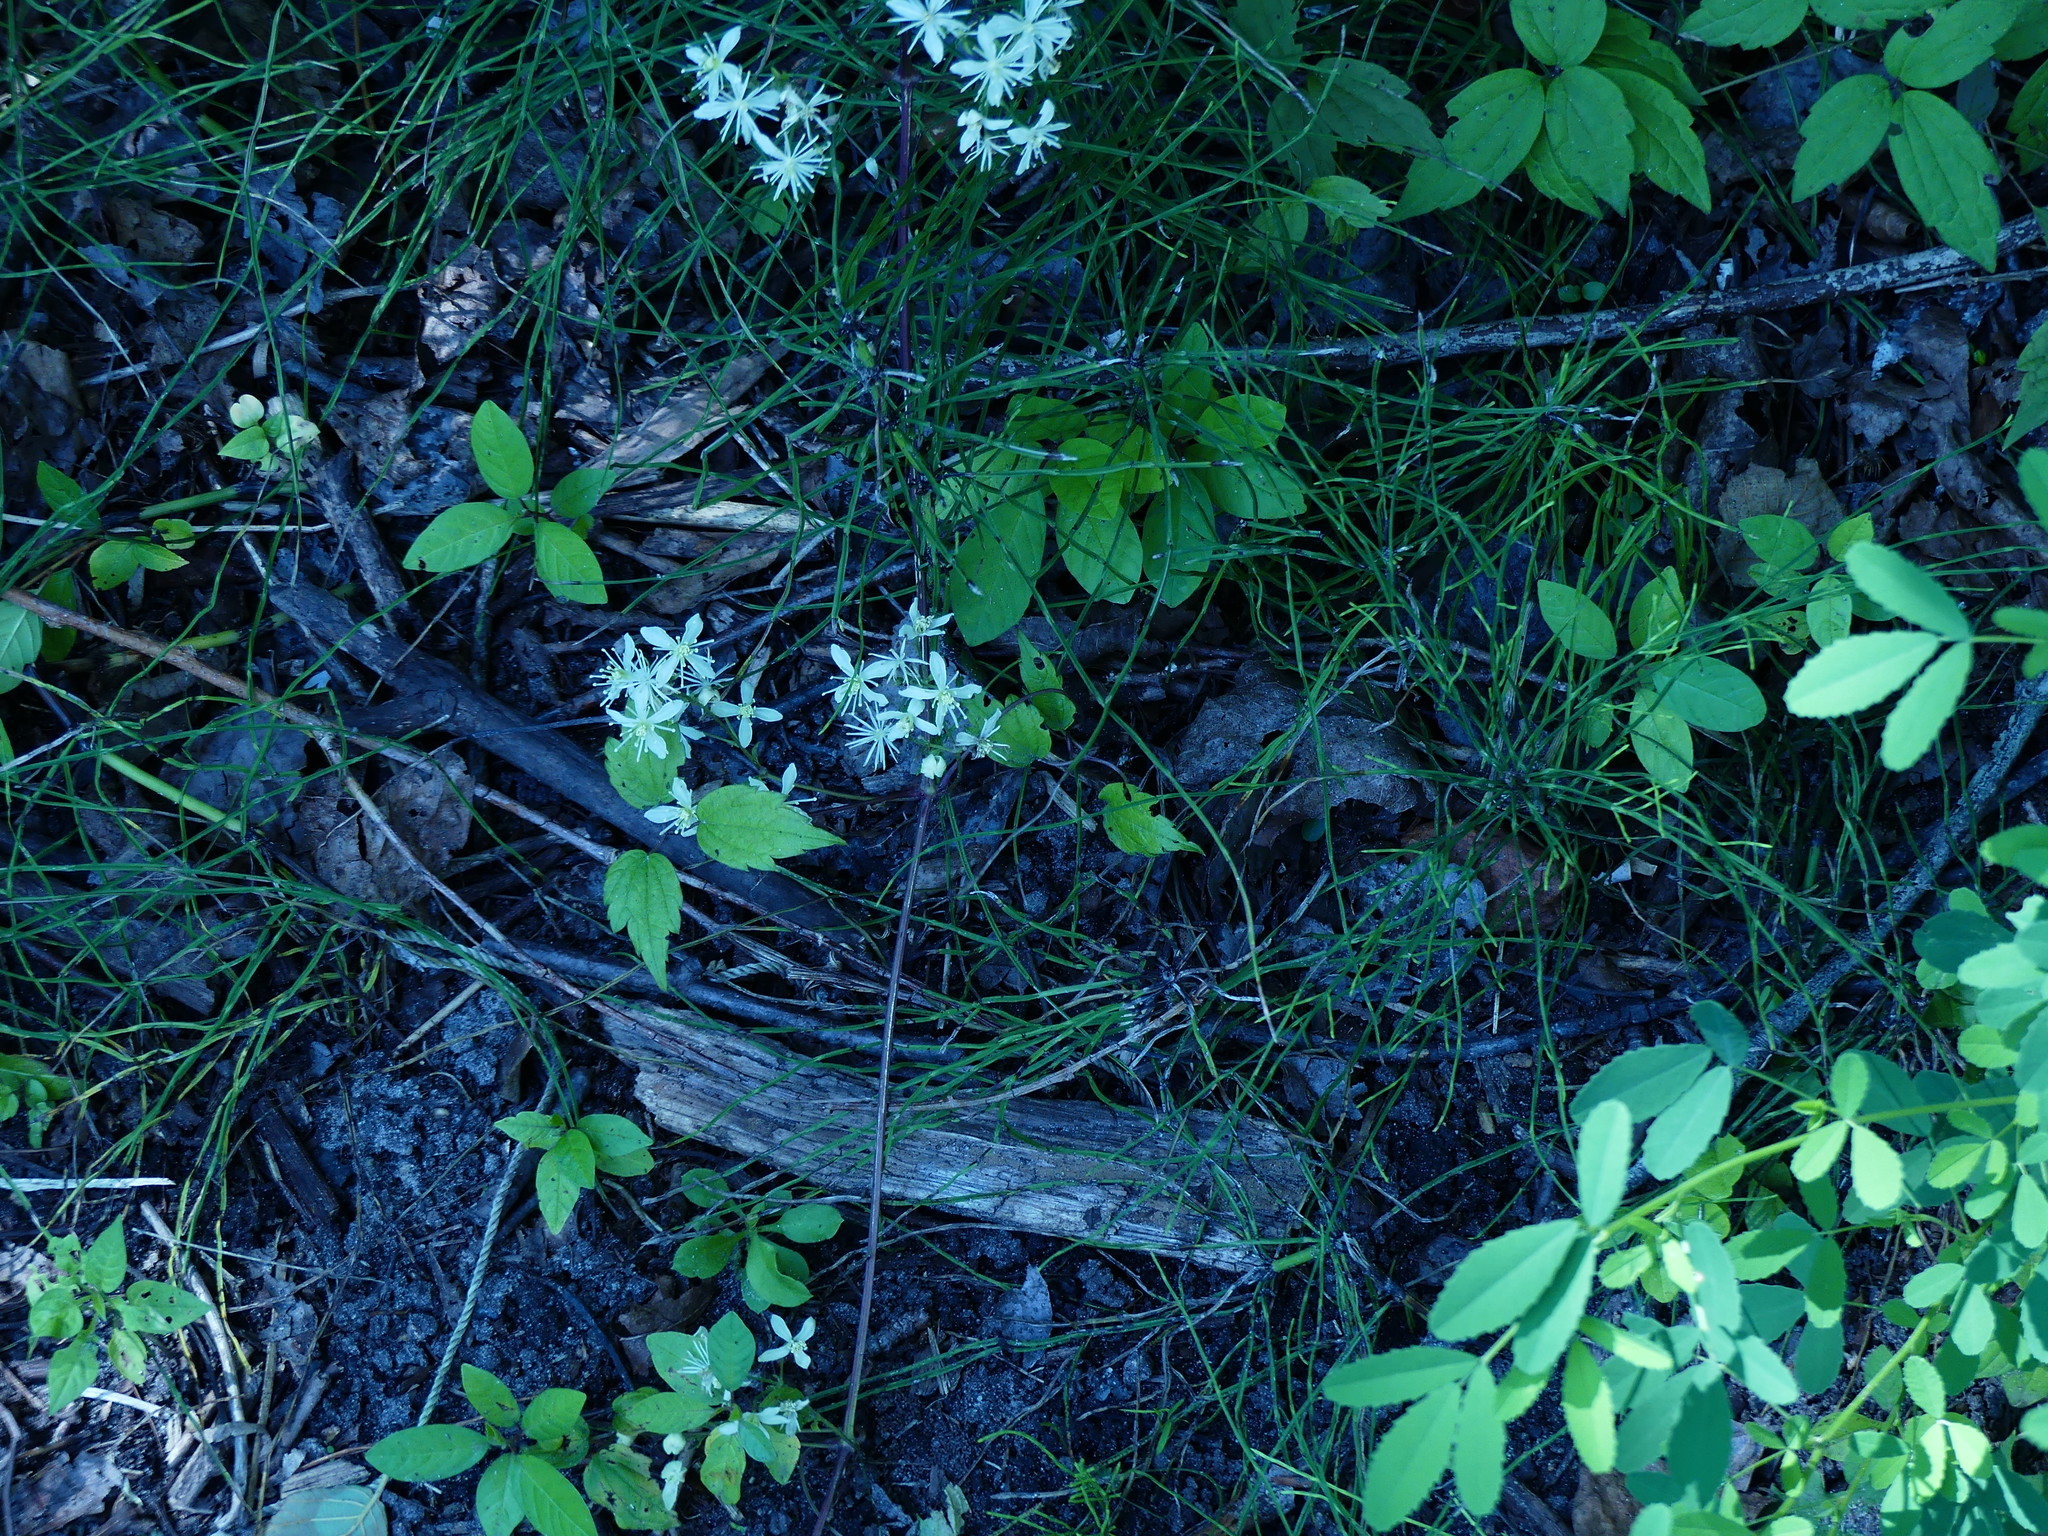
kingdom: Plantae
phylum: Tracheophyta
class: Magnoliopsida
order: Ranunculales
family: Ranunculaceae
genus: Clematis
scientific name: Clematis virginiana
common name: Virgin's-bower
